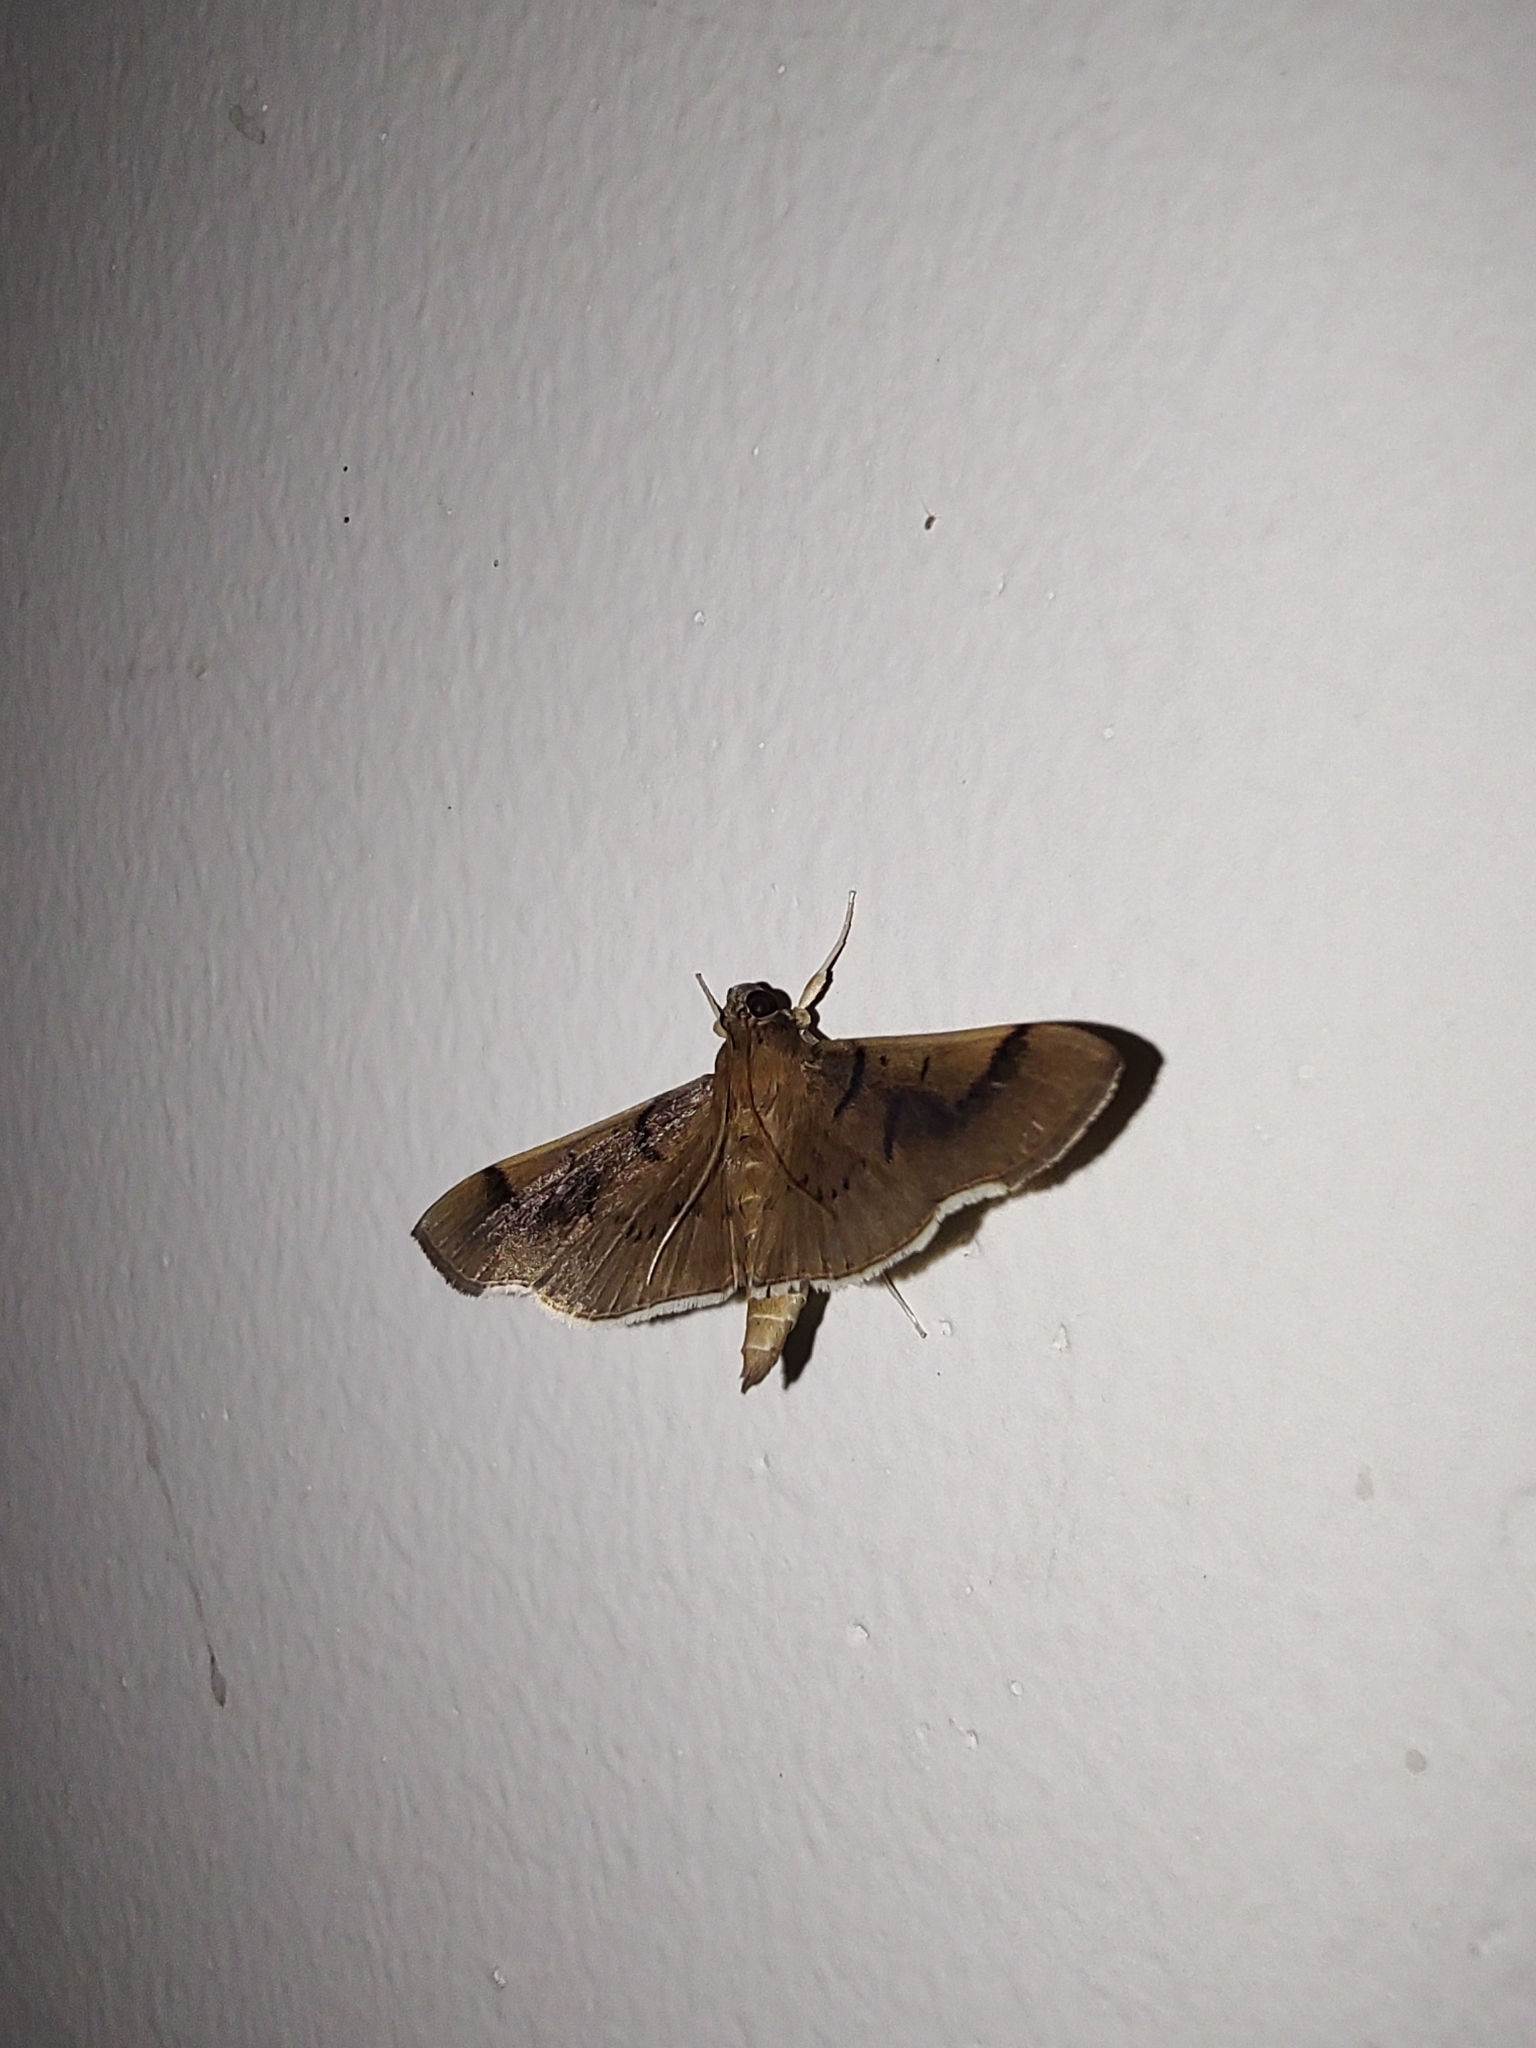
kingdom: Animalia
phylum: Arthropoda
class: Insecta
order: Lepidoptera
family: Crambidae
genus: Omiodes
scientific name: Omiodes
